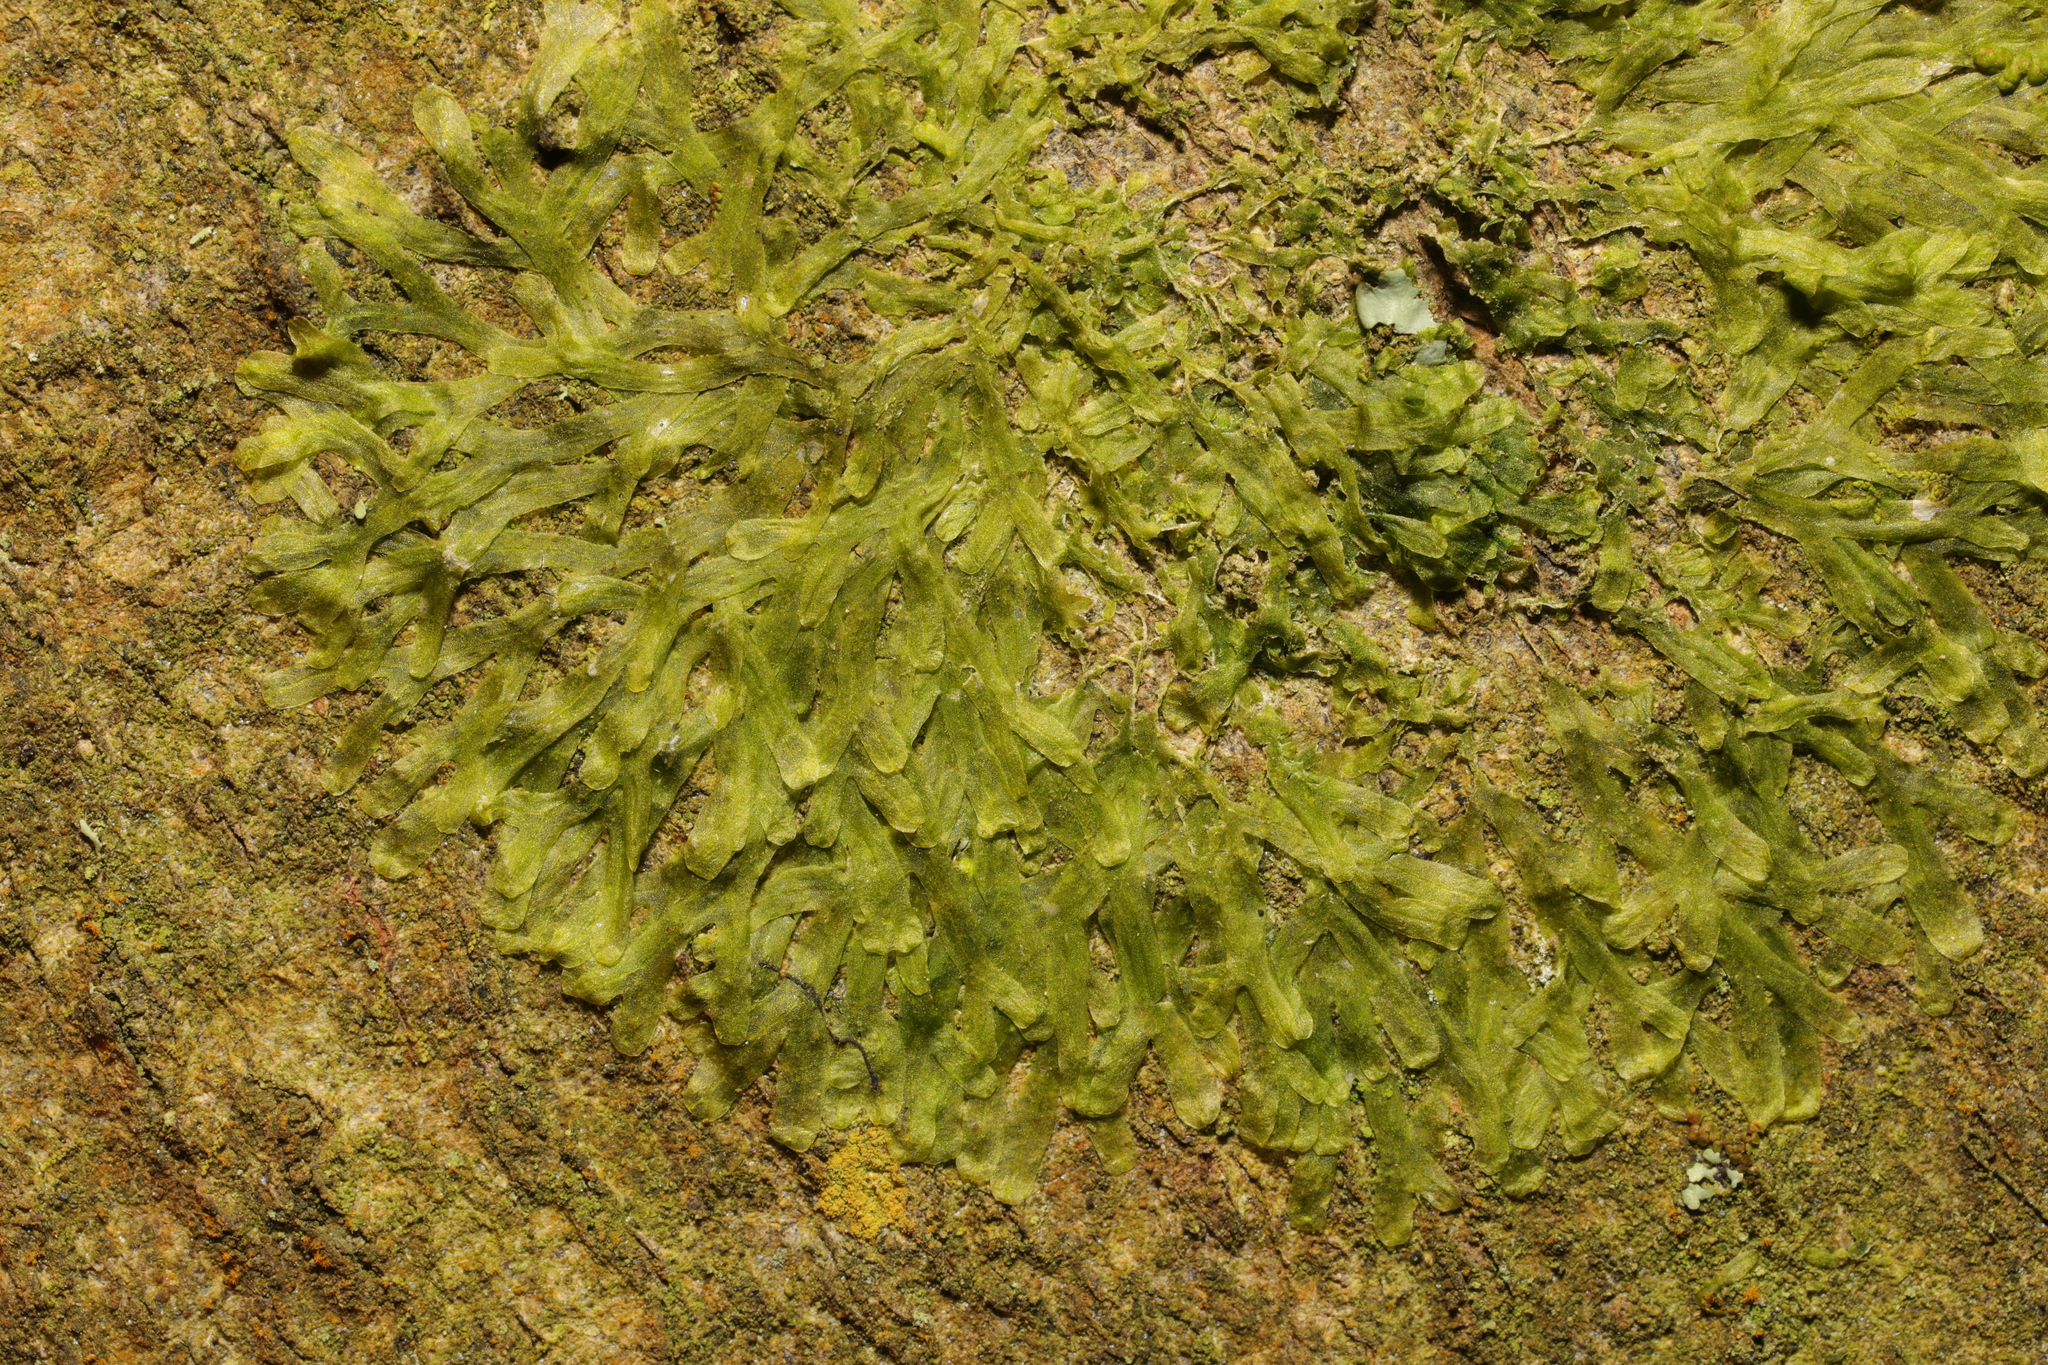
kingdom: Plantae
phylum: Marchantiophyta
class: Jungermanniopsida
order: Metzgeriales
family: Metzgeriaceae
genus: Metzgeria
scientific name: Metzgeria furcata
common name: Forked veilwort
